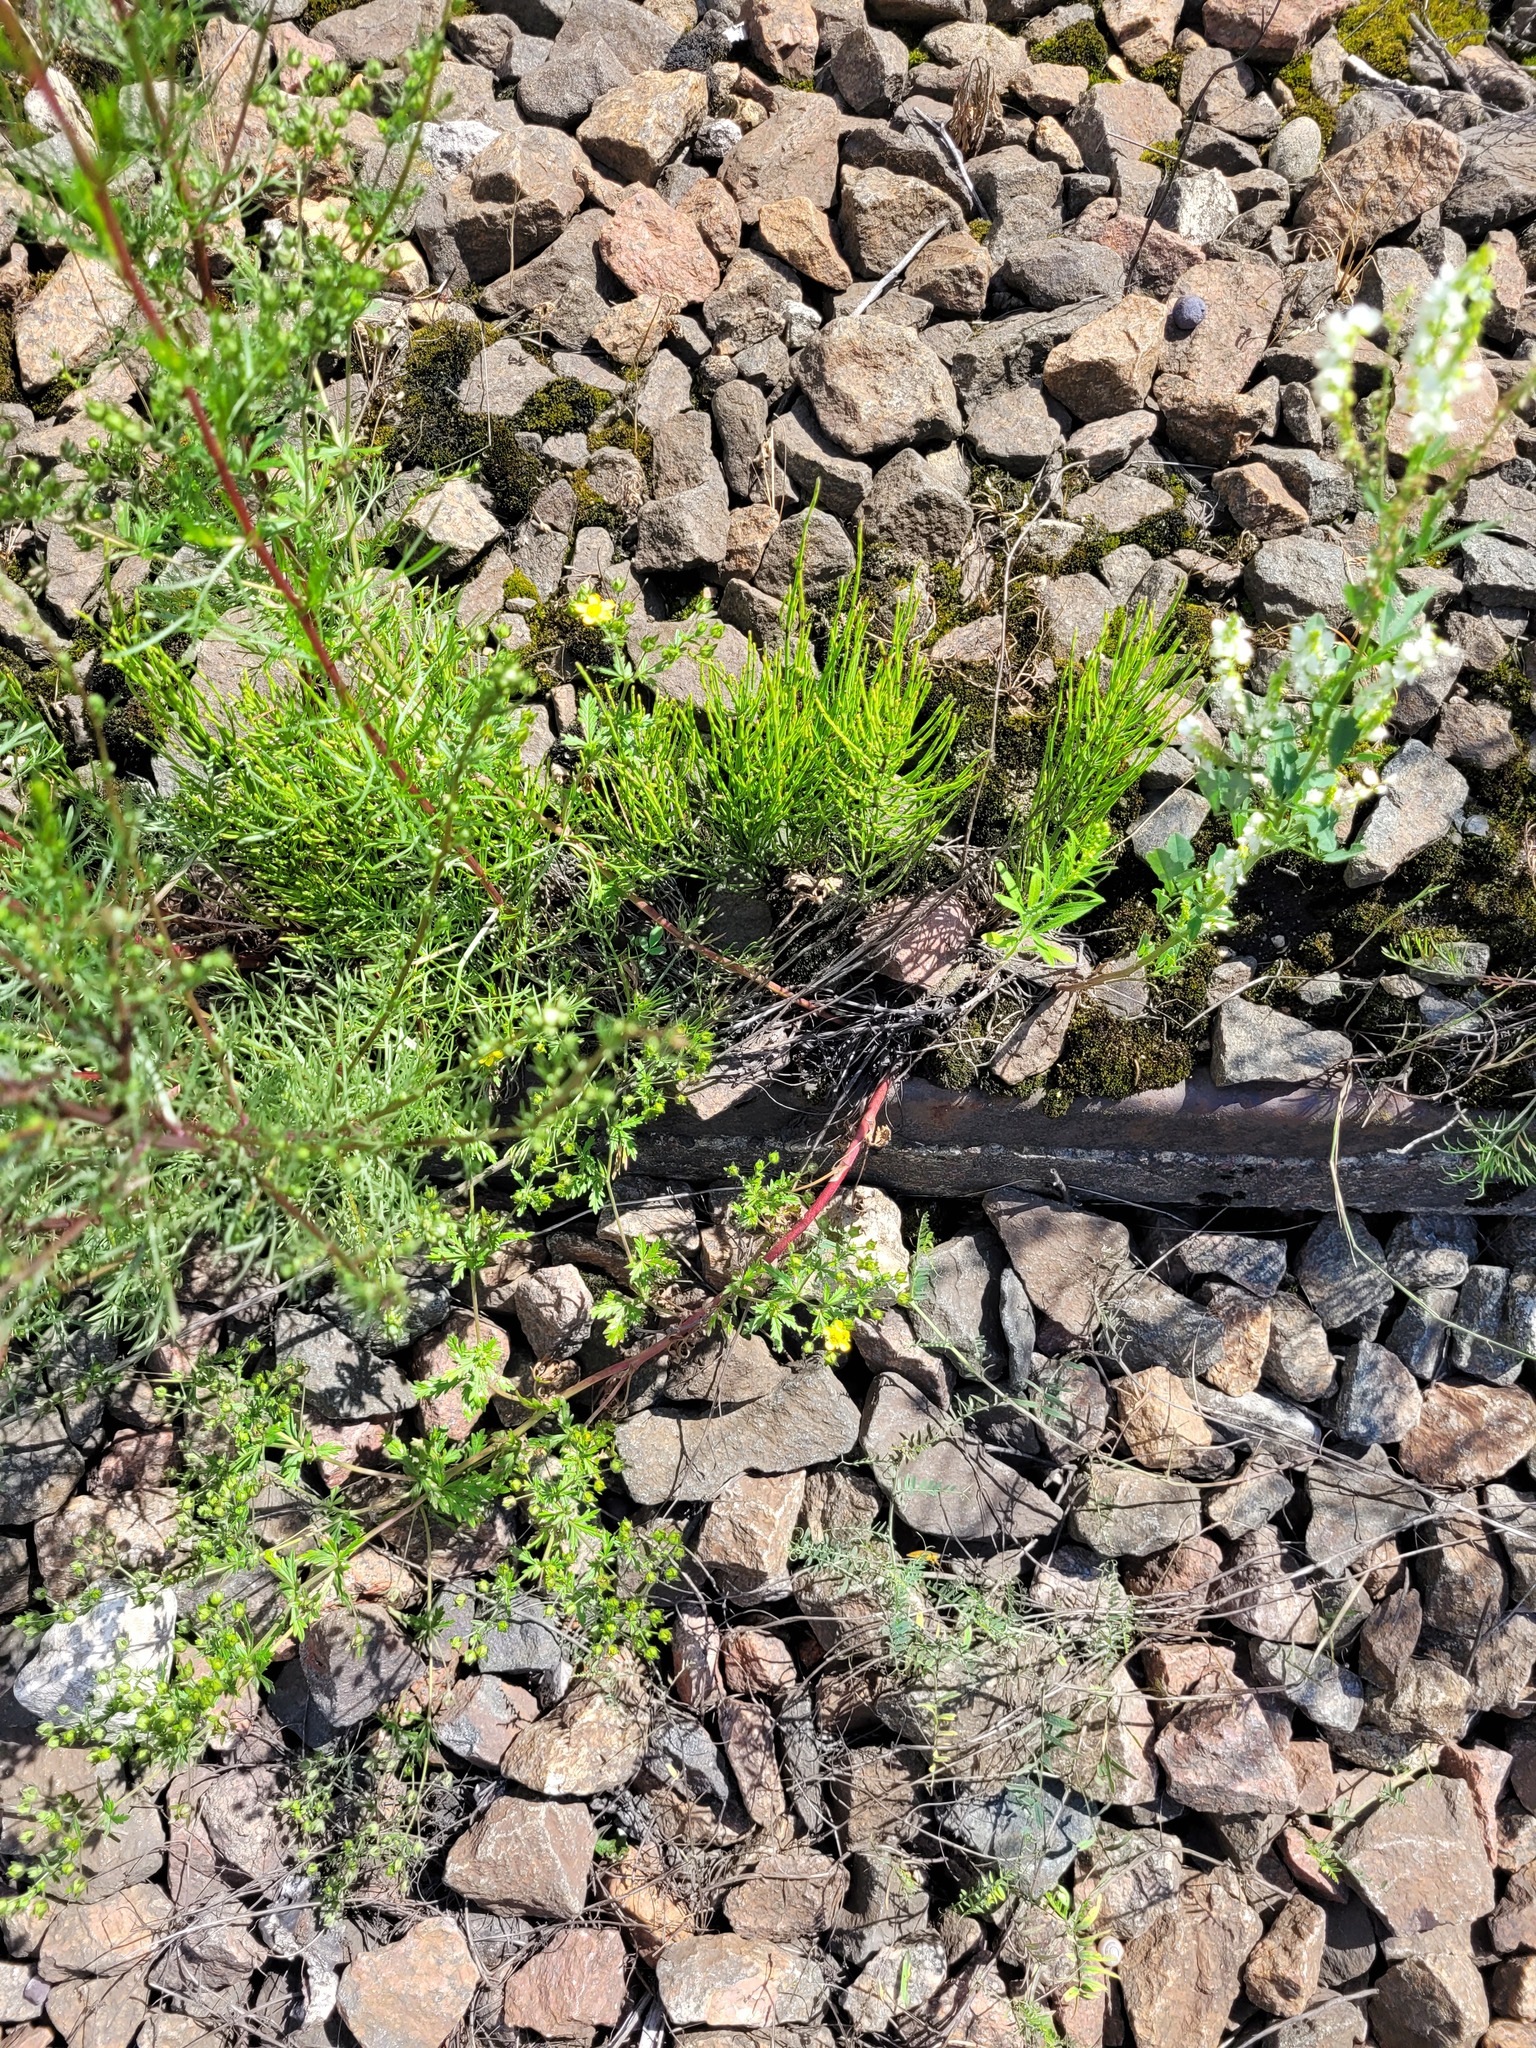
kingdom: Plantae
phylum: Tracheophyta
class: Magnoliopsida
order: Rosales
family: Rosaceae
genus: Potentilla
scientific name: Potentilla argentea
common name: Hoary cinquefoil
